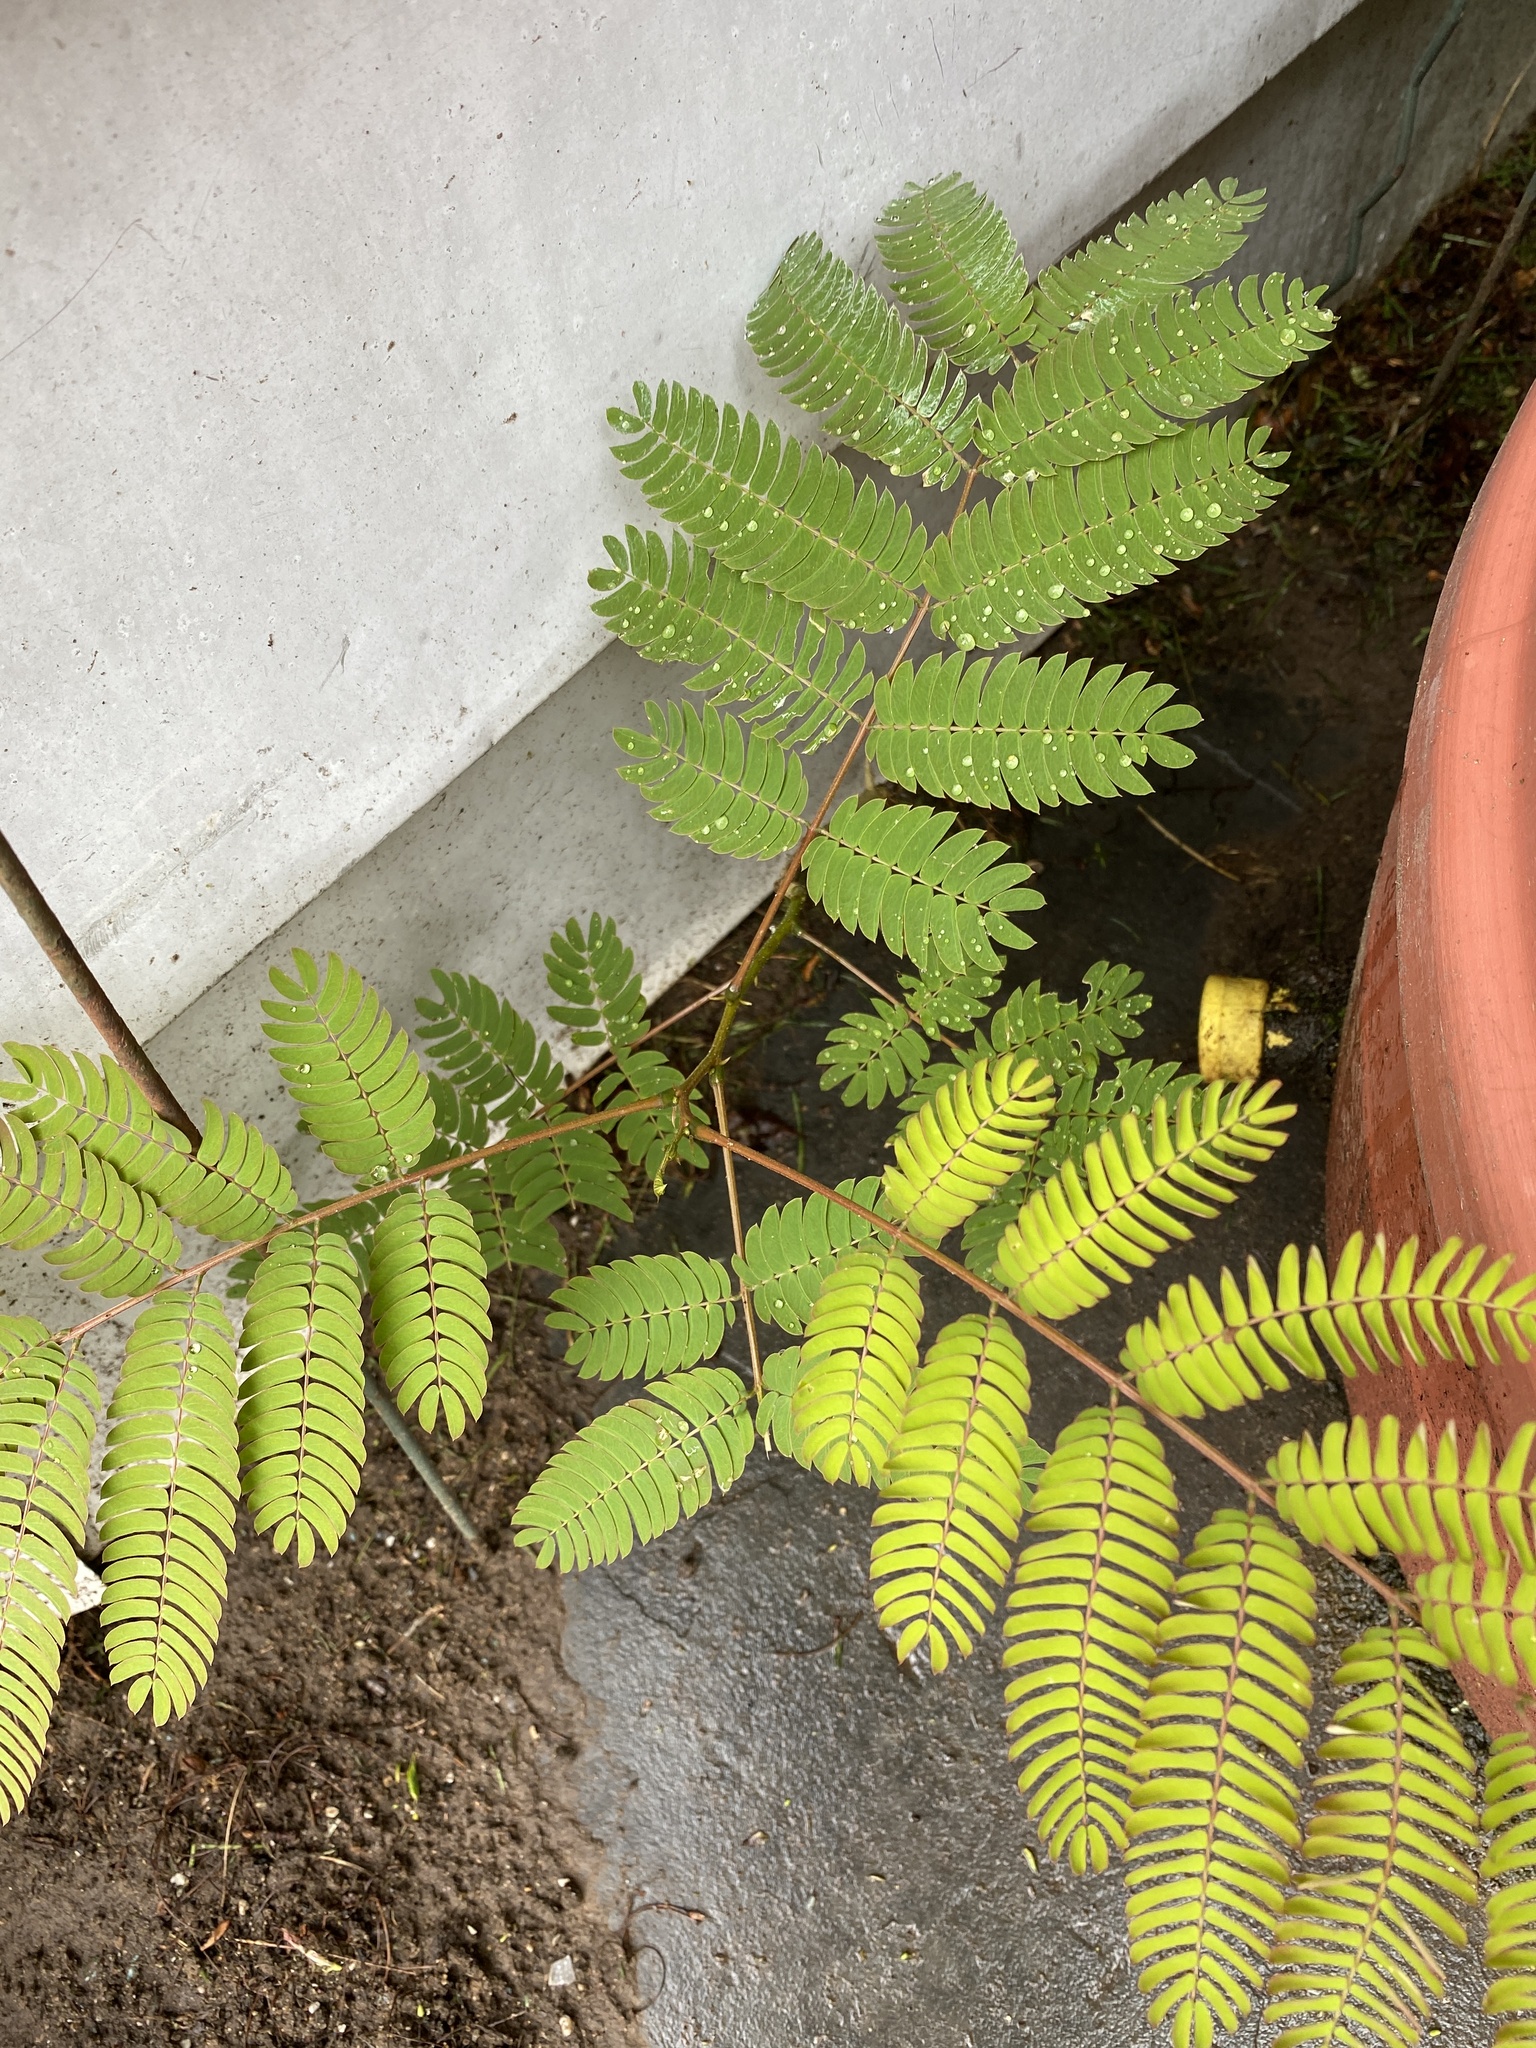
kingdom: Plantae
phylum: Tracheophyta
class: Magnoliopsida
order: Fabales
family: Fabaceae
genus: Albizia
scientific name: Albizia julibrissin
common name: Silktree
